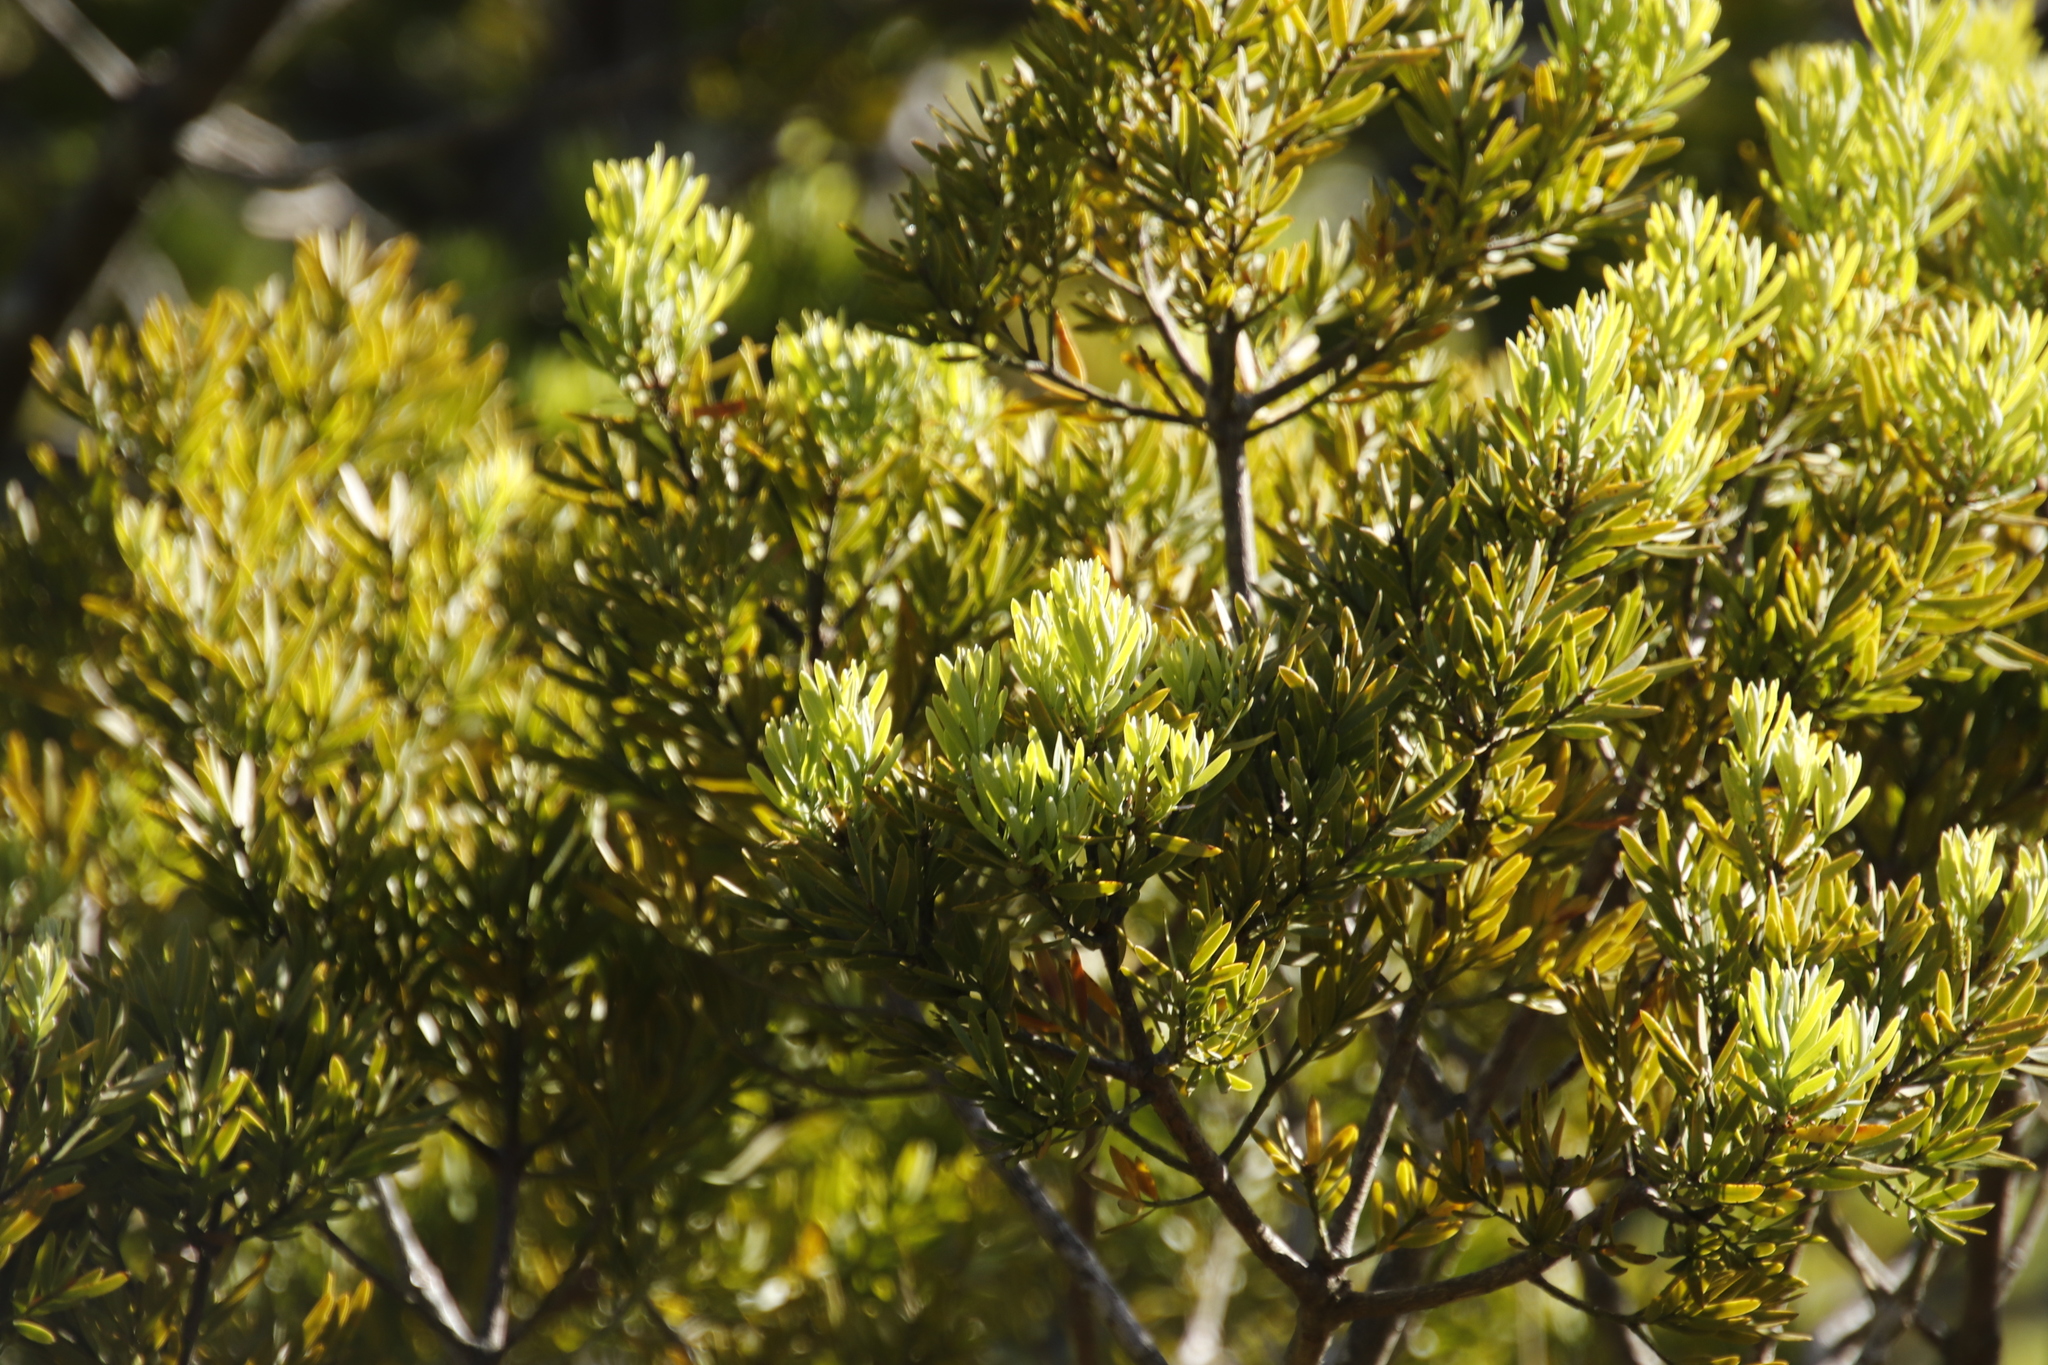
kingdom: Plantae
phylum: Tracheophyta
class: Pinopsida
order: Pinales
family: Podocarpaceae
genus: Afrocarpus
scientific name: Afrocarpus falcatus
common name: Bastard yellowwood
